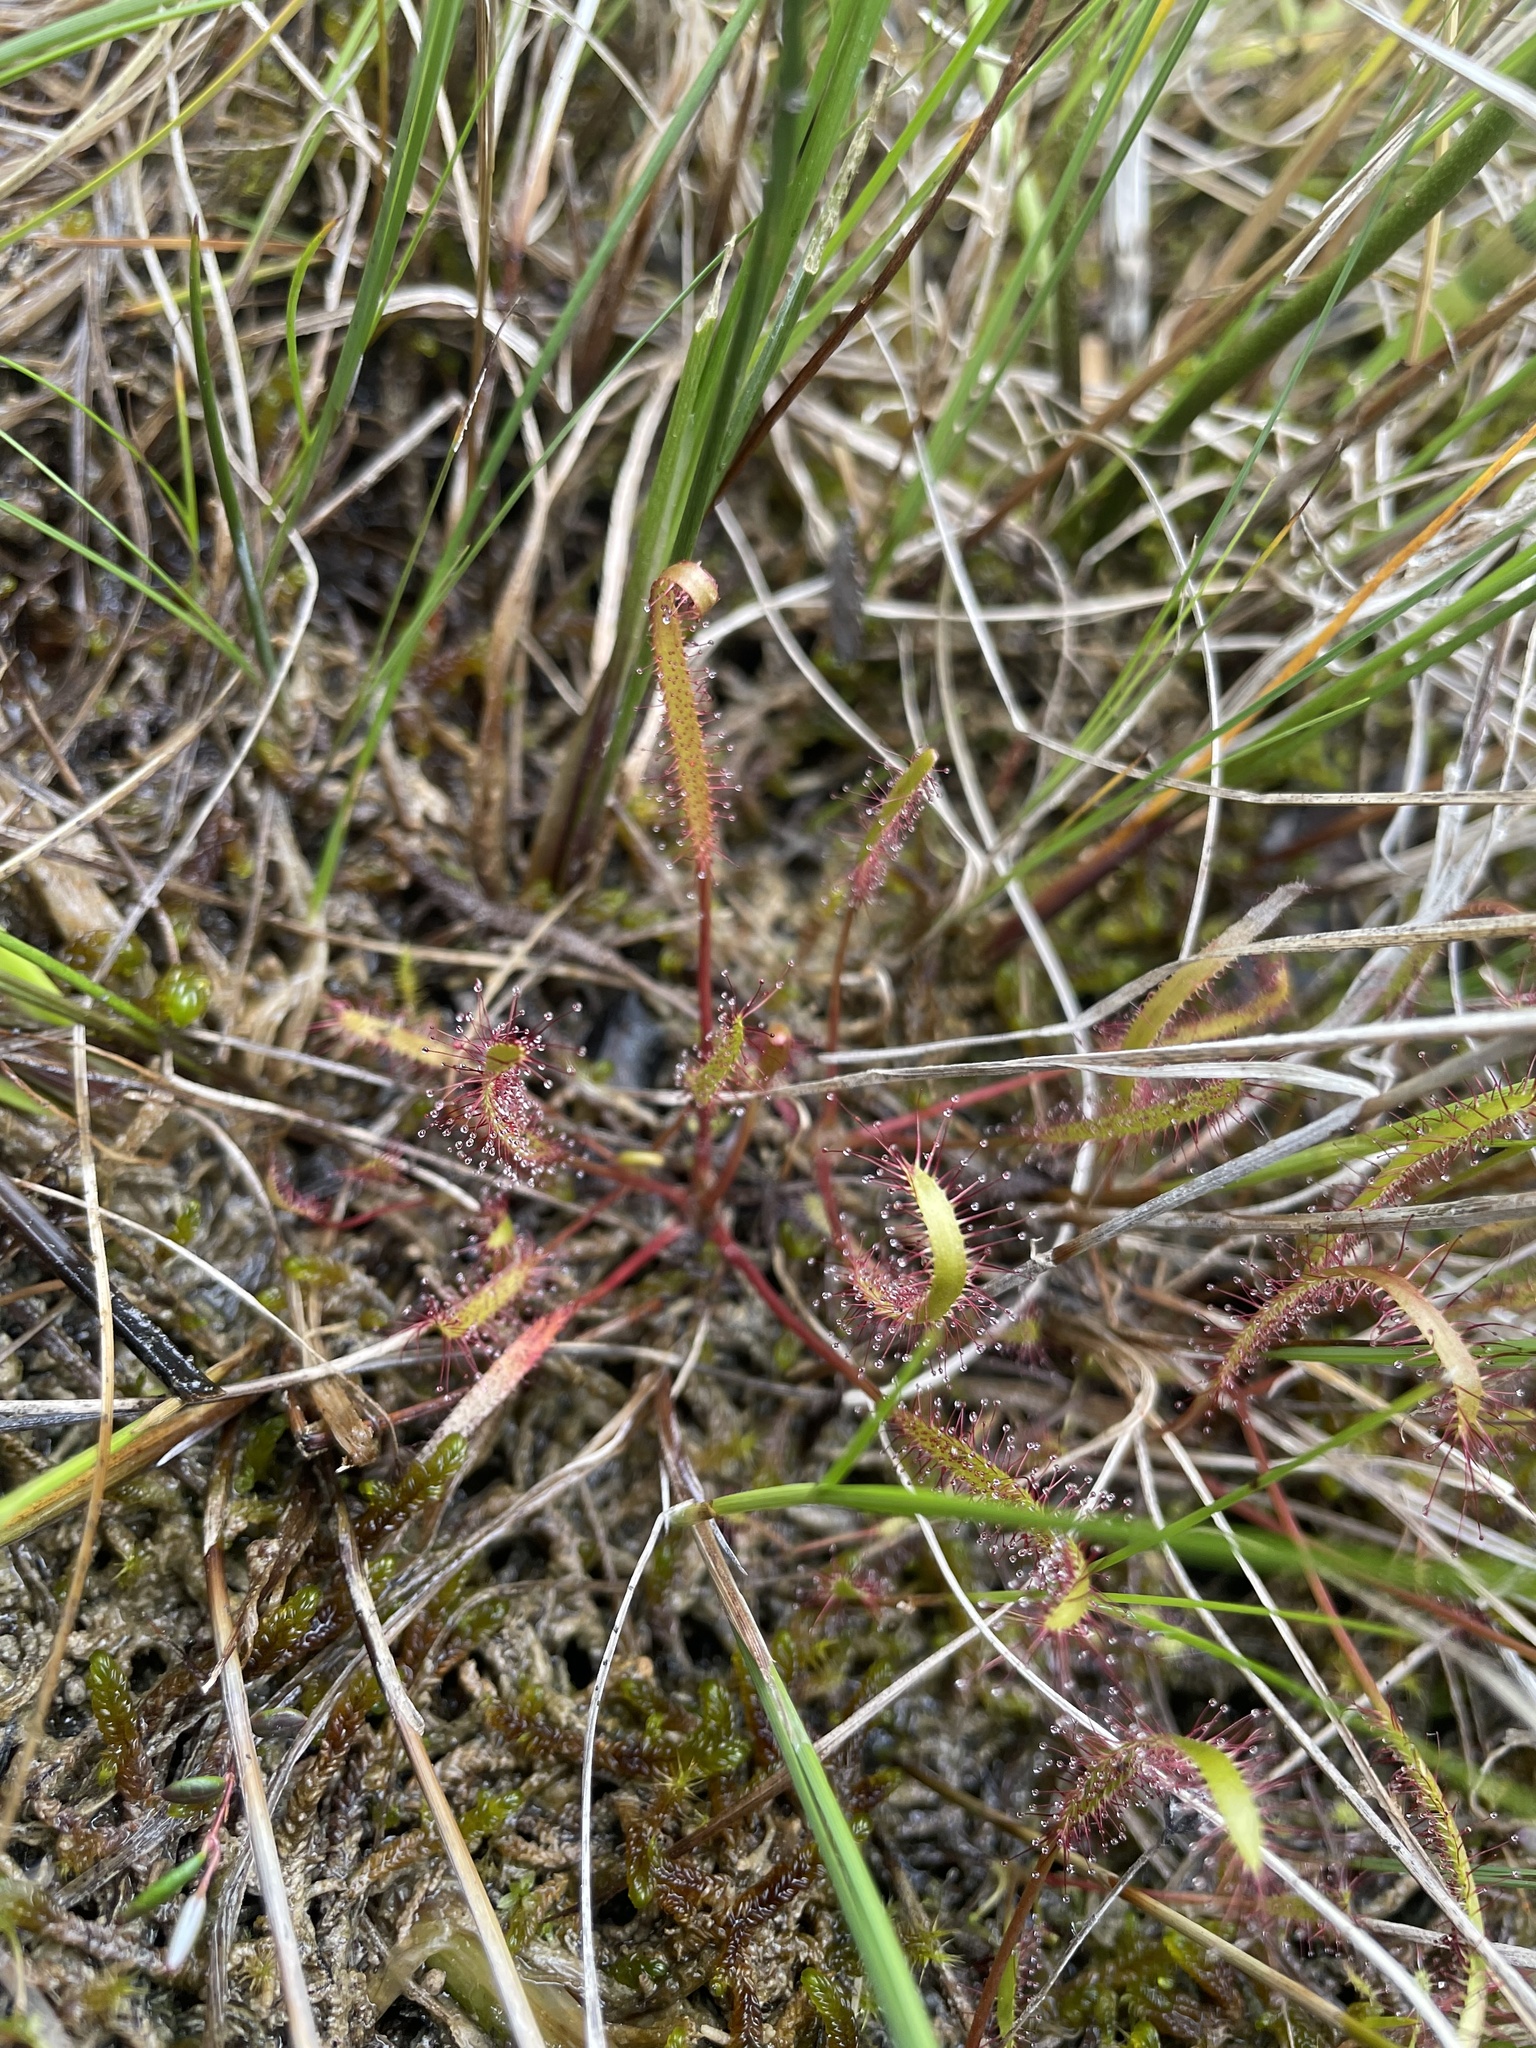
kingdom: Plantae
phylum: Tracheophyta
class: Magnoliopsida
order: Caryophyllales
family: Droseraceae
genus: Drosera
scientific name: Drosera linearis
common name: Linear-leaved sundew
